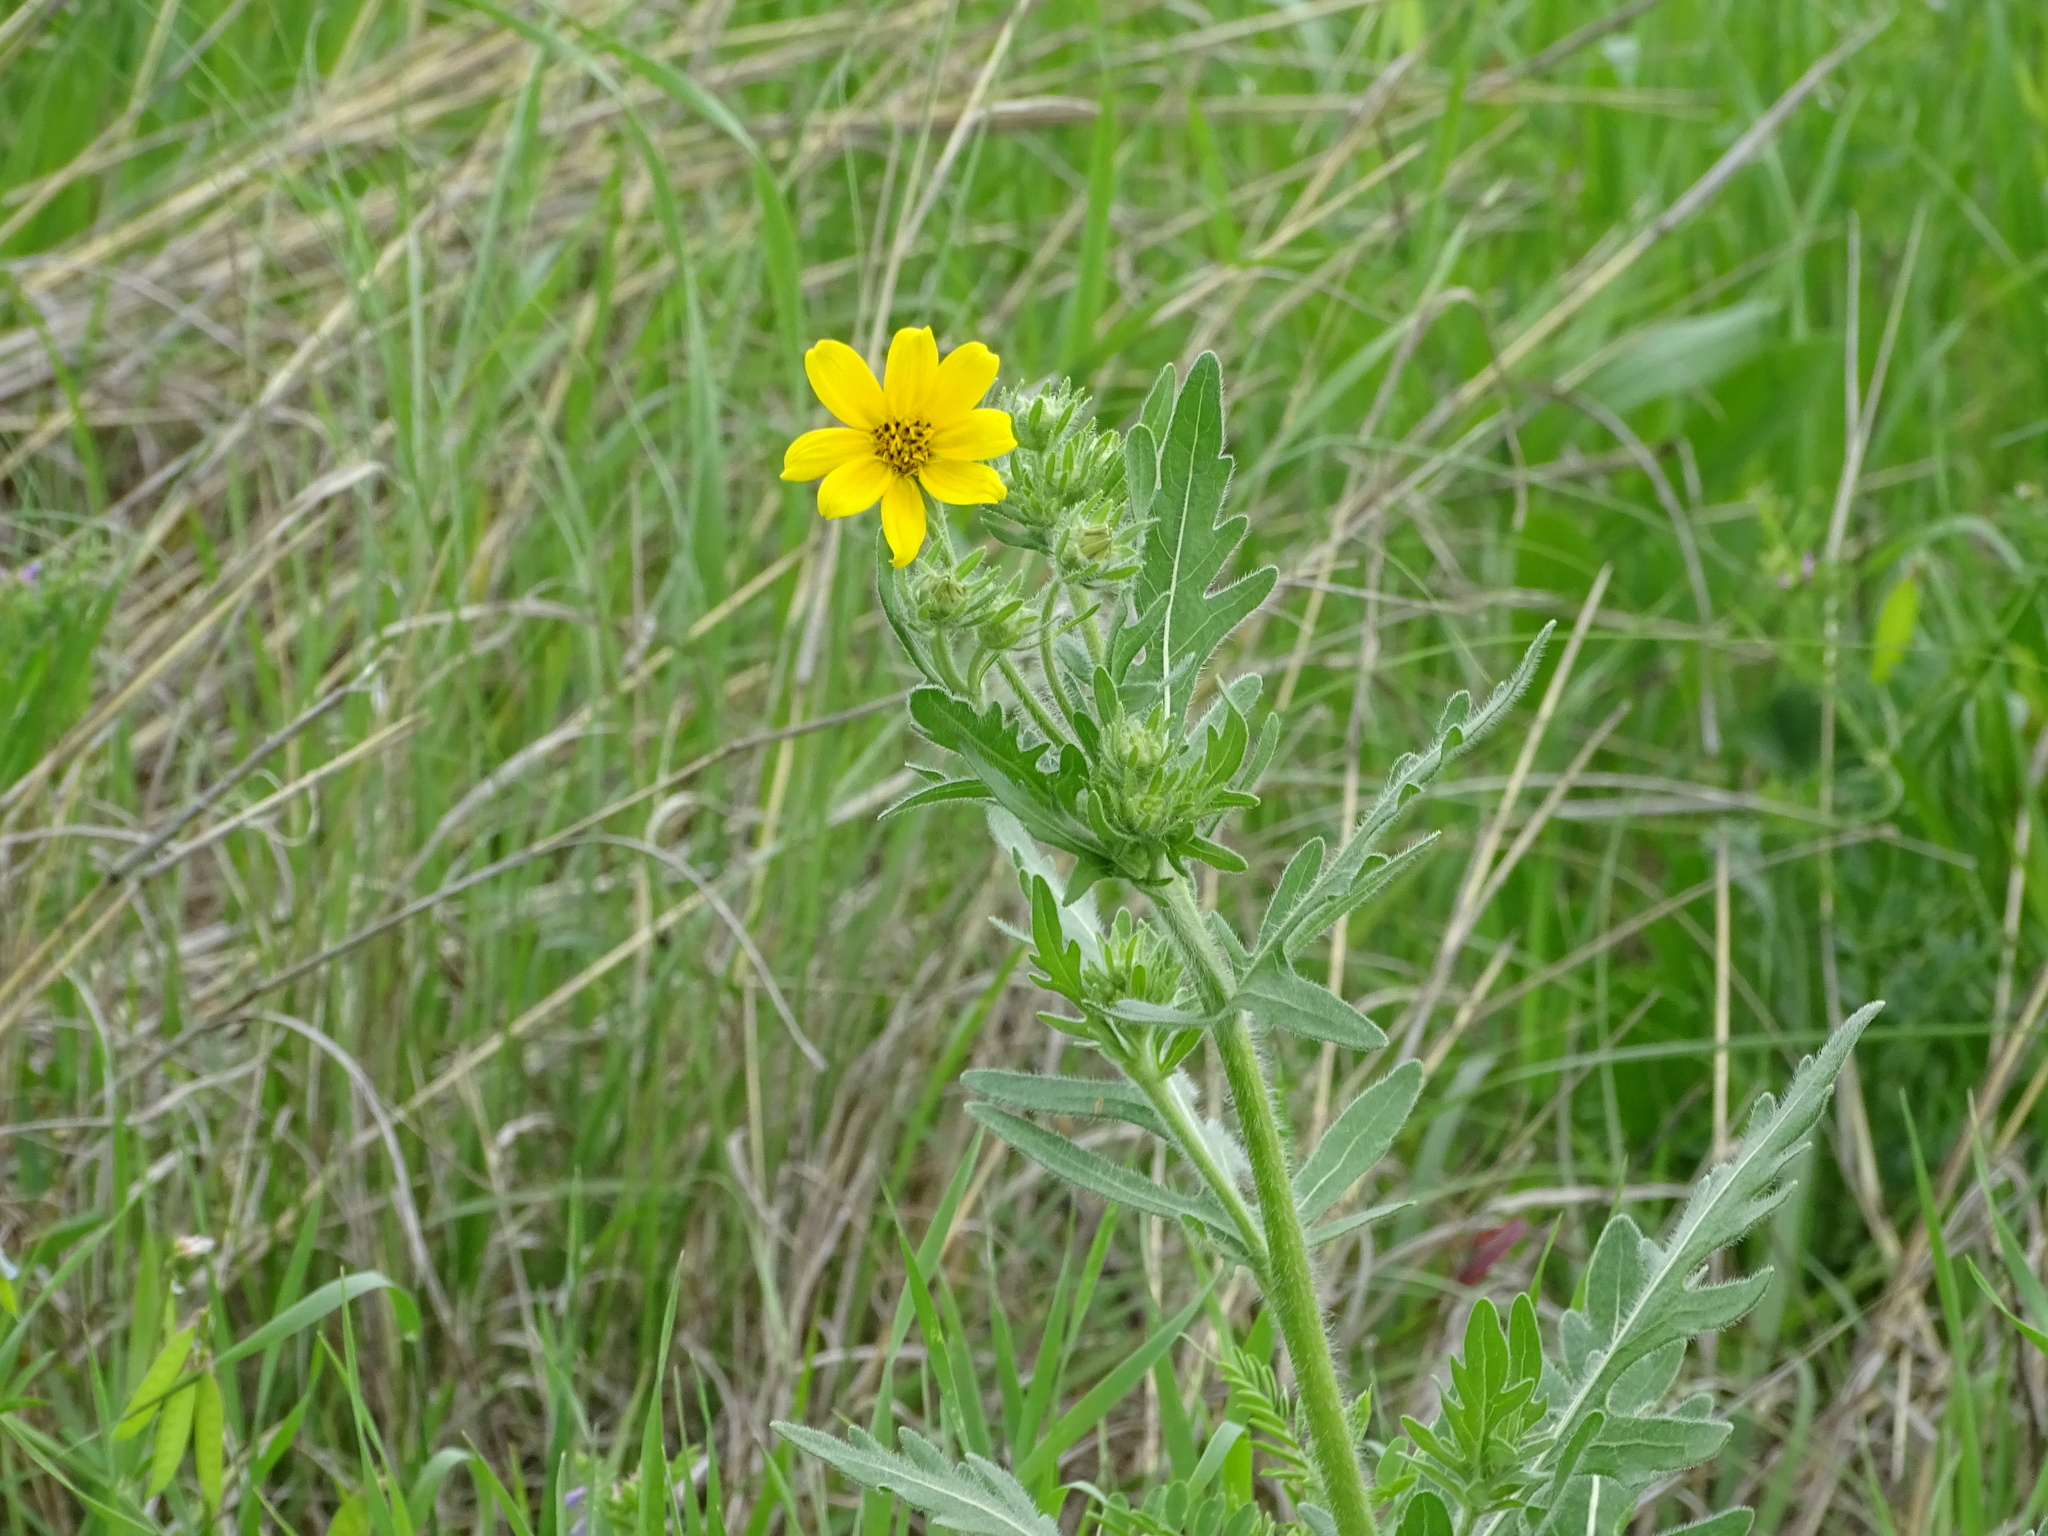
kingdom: Plantae
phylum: Tracheophyta
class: Magnoliopsida
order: Asterales
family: Asteraceae
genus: Engelmannia
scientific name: Engelmannia peristenia
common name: Engelmann's daisy
